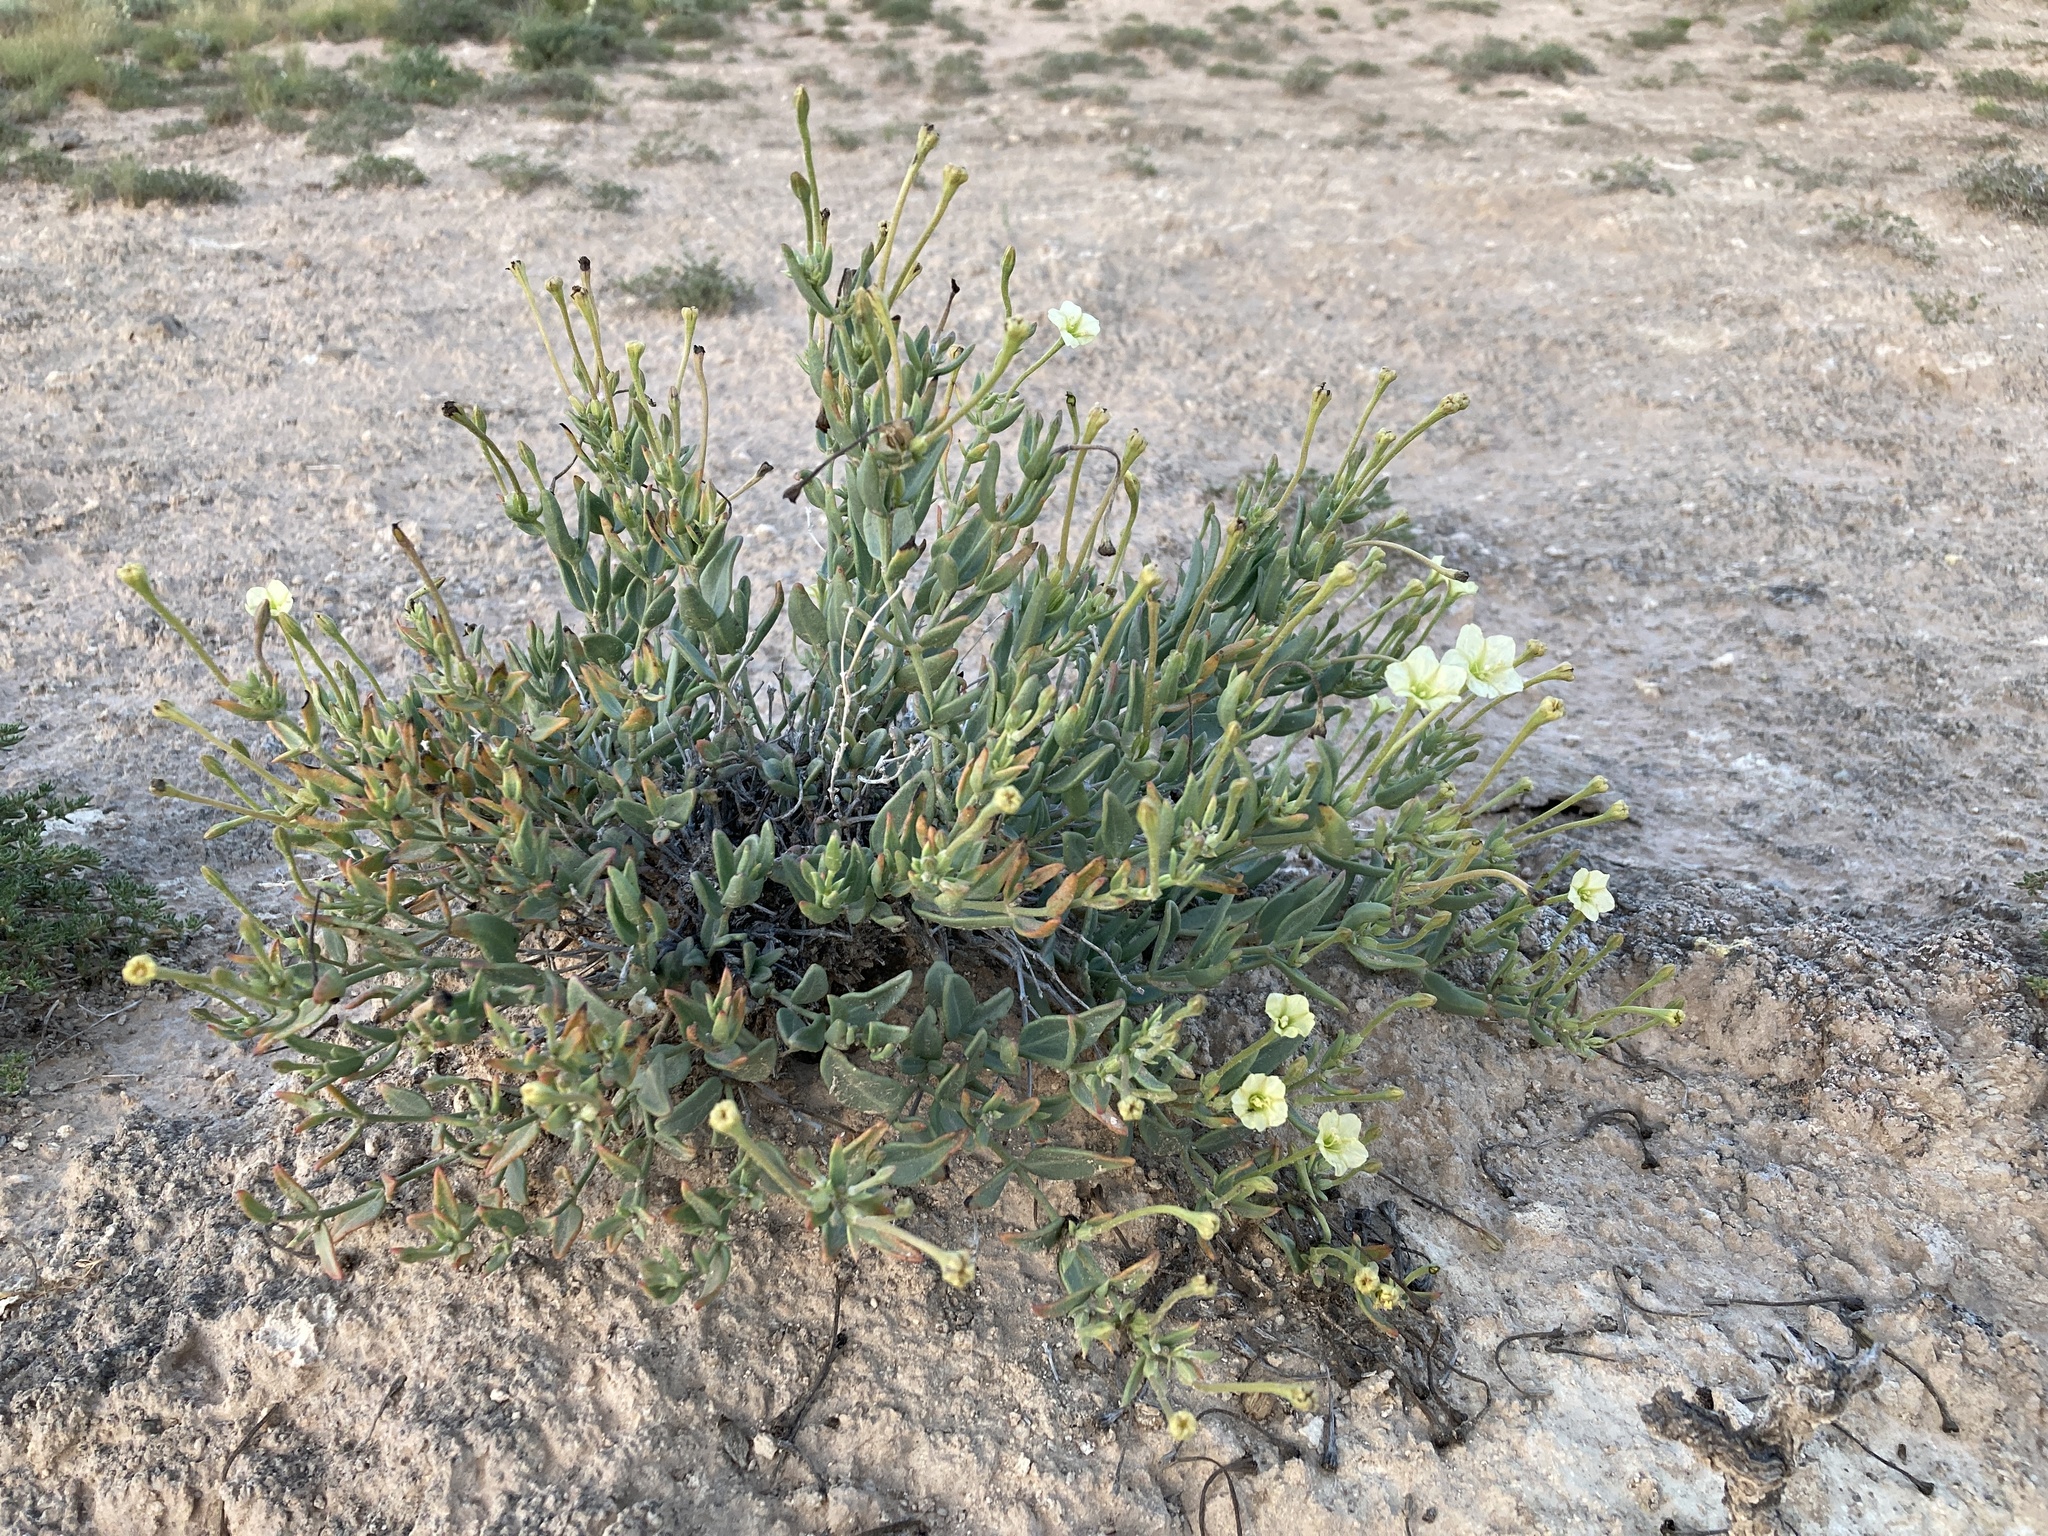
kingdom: Plantae
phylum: Tracheophyta
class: Magnoliopsida
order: Caryophyllales
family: Nyctaginaceae
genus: Acleisanthes
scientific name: Acleisanthes lanceolata
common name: Gypsum moonpod
